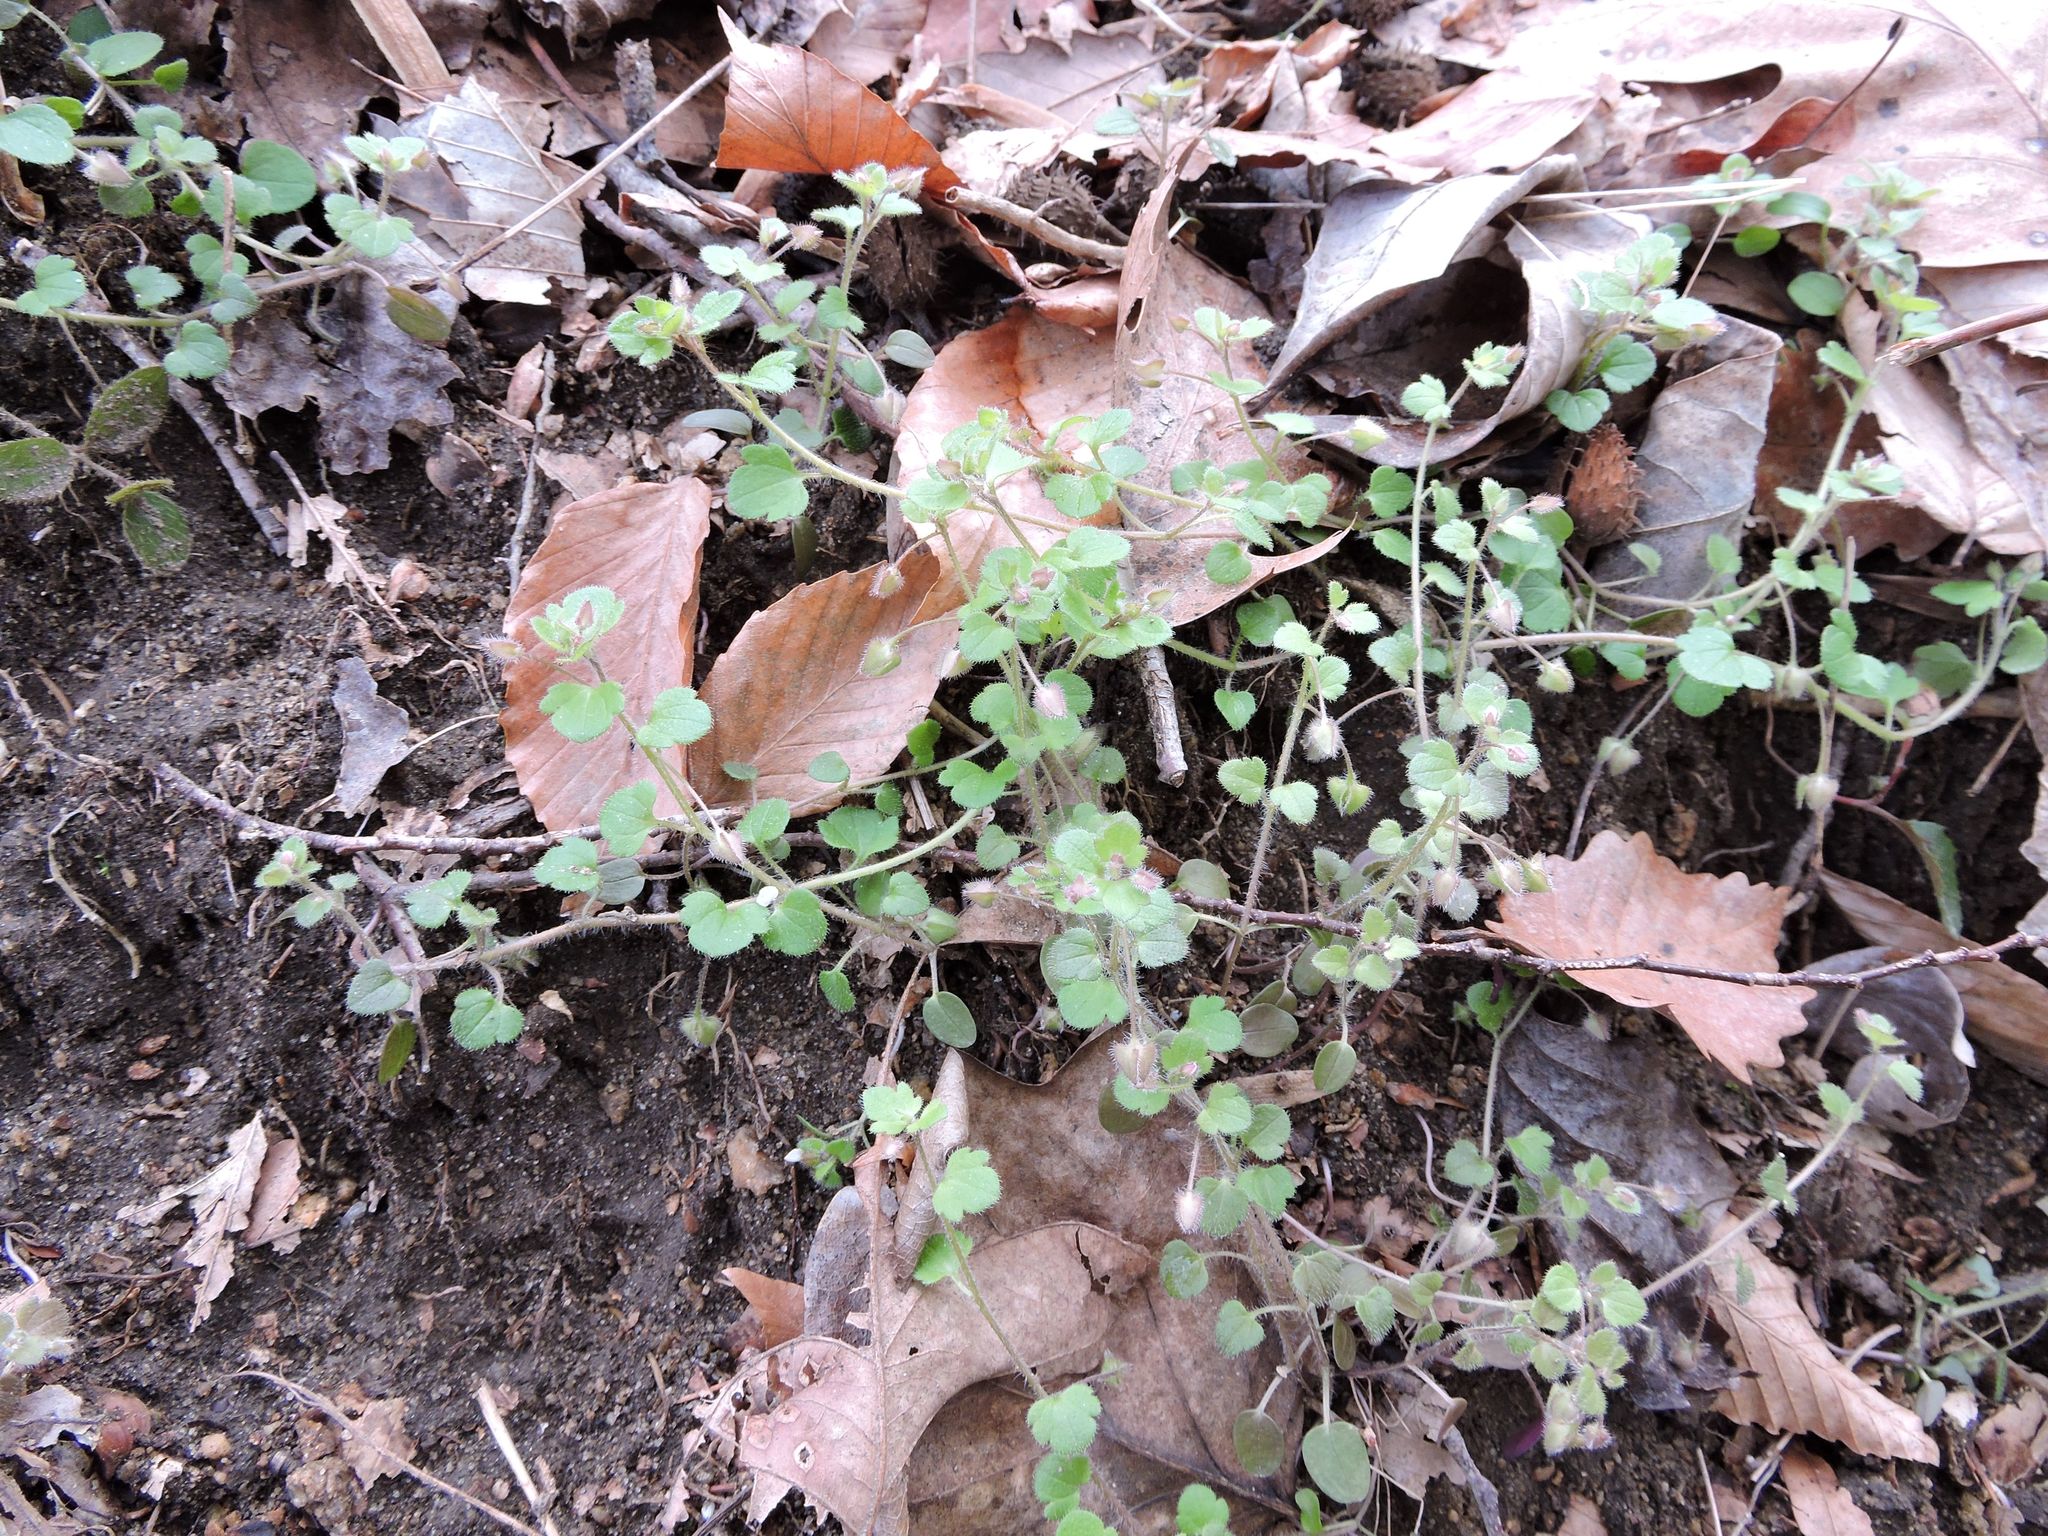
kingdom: Plantae
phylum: Tracheophyta
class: Magnoliopsida
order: Lamiales
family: Plantaginaceae
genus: Veronica
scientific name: Veronica hederifolia
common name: Ivy-leaved speedwell
